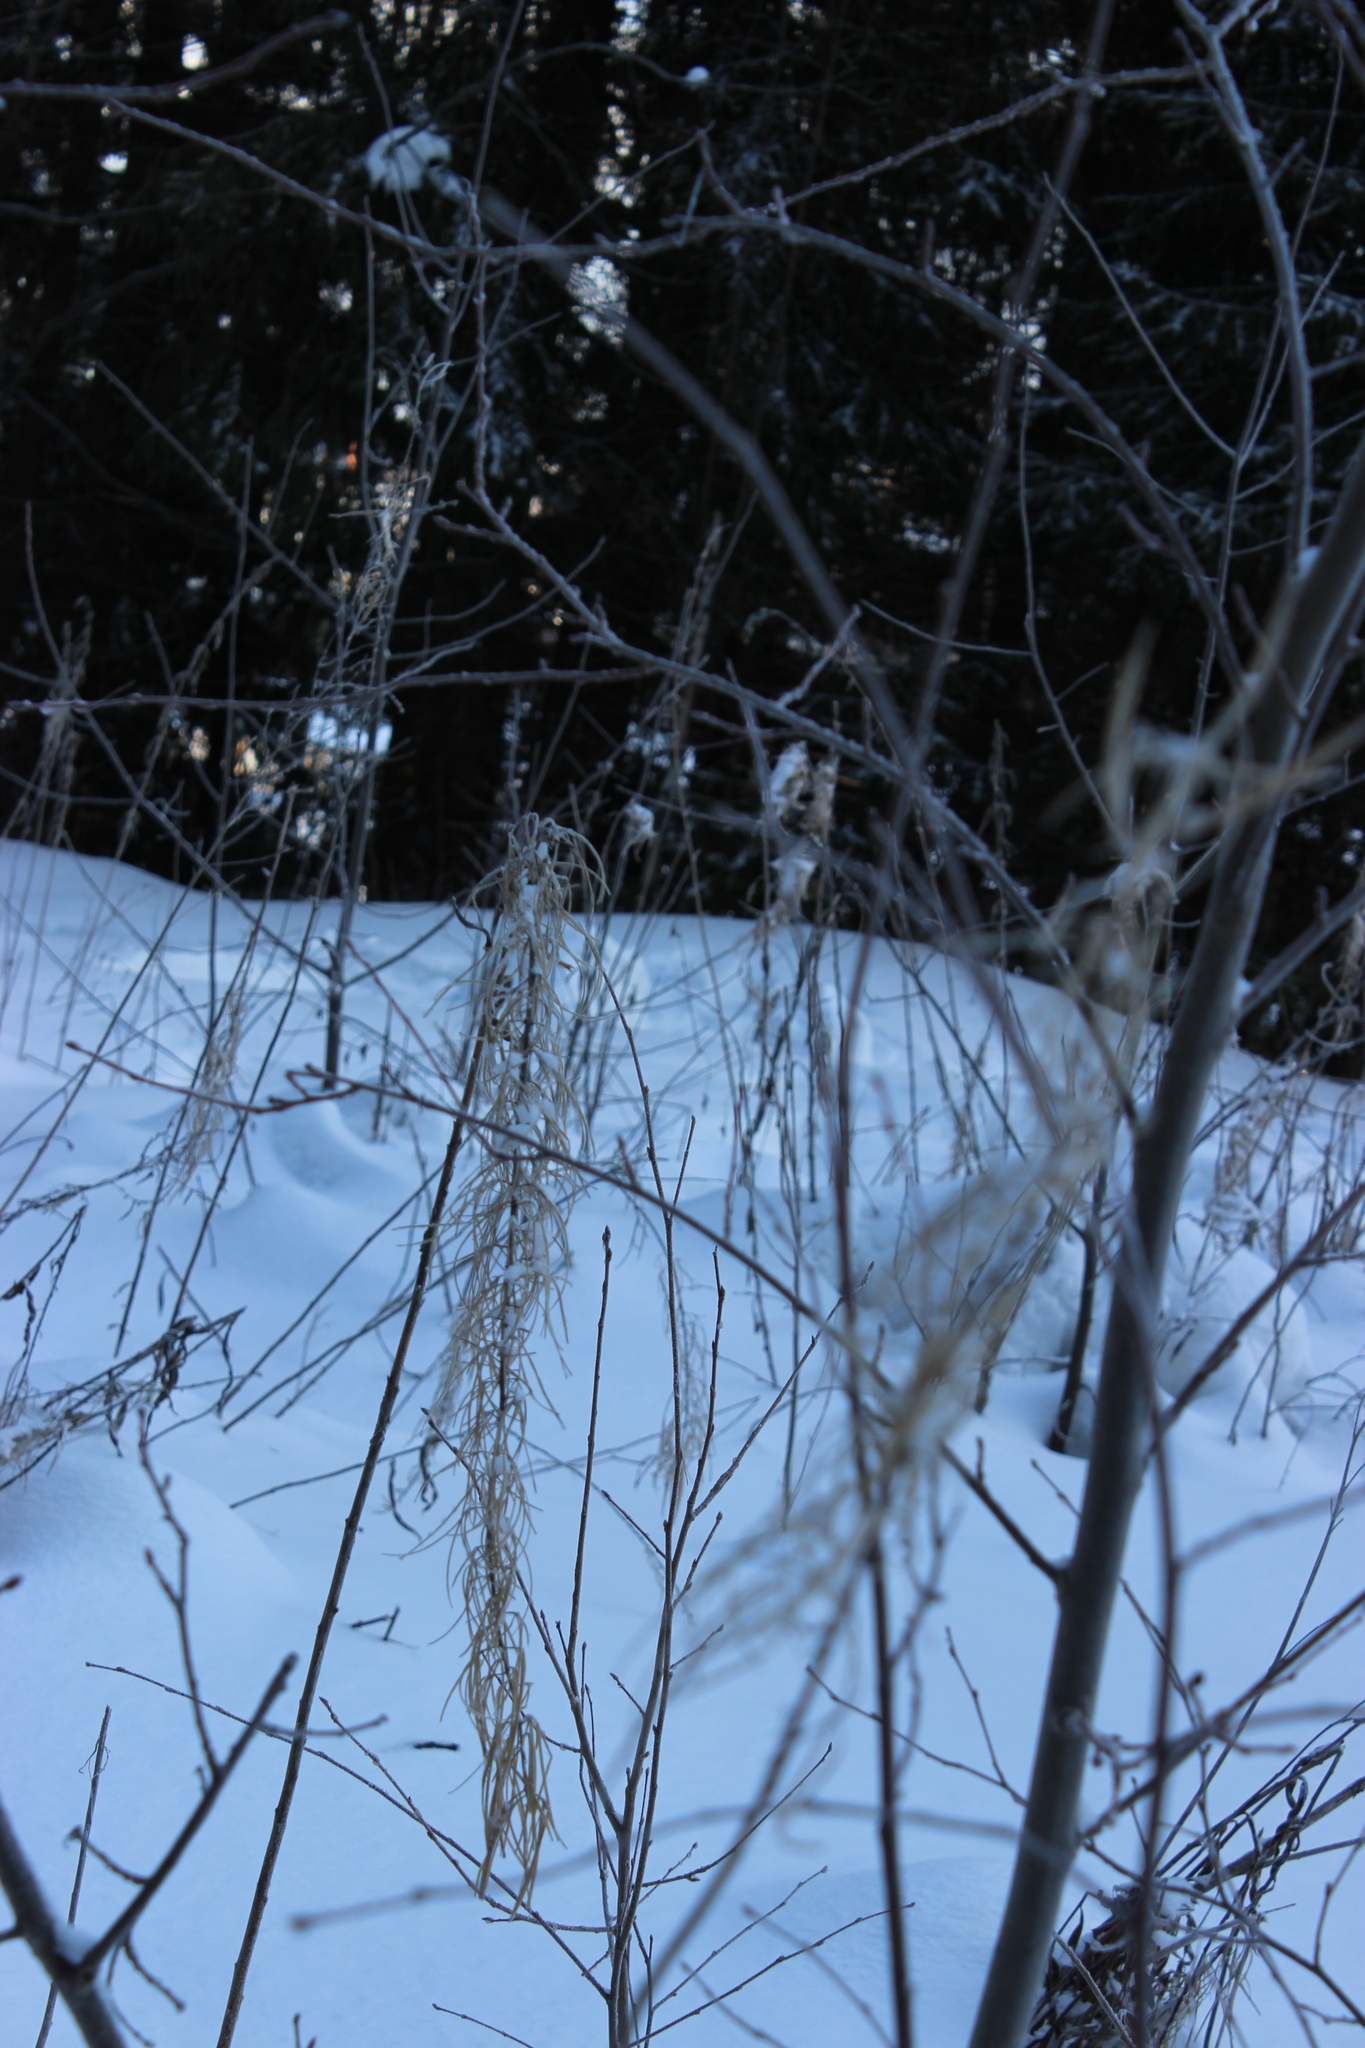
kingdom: Plantae
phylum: Tracheophyta
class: Magnoliopsida
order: Myrtales
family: Onagraceae
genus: Chamaenerion
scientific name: Chamaenerion angustifolium
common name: Fireweed
